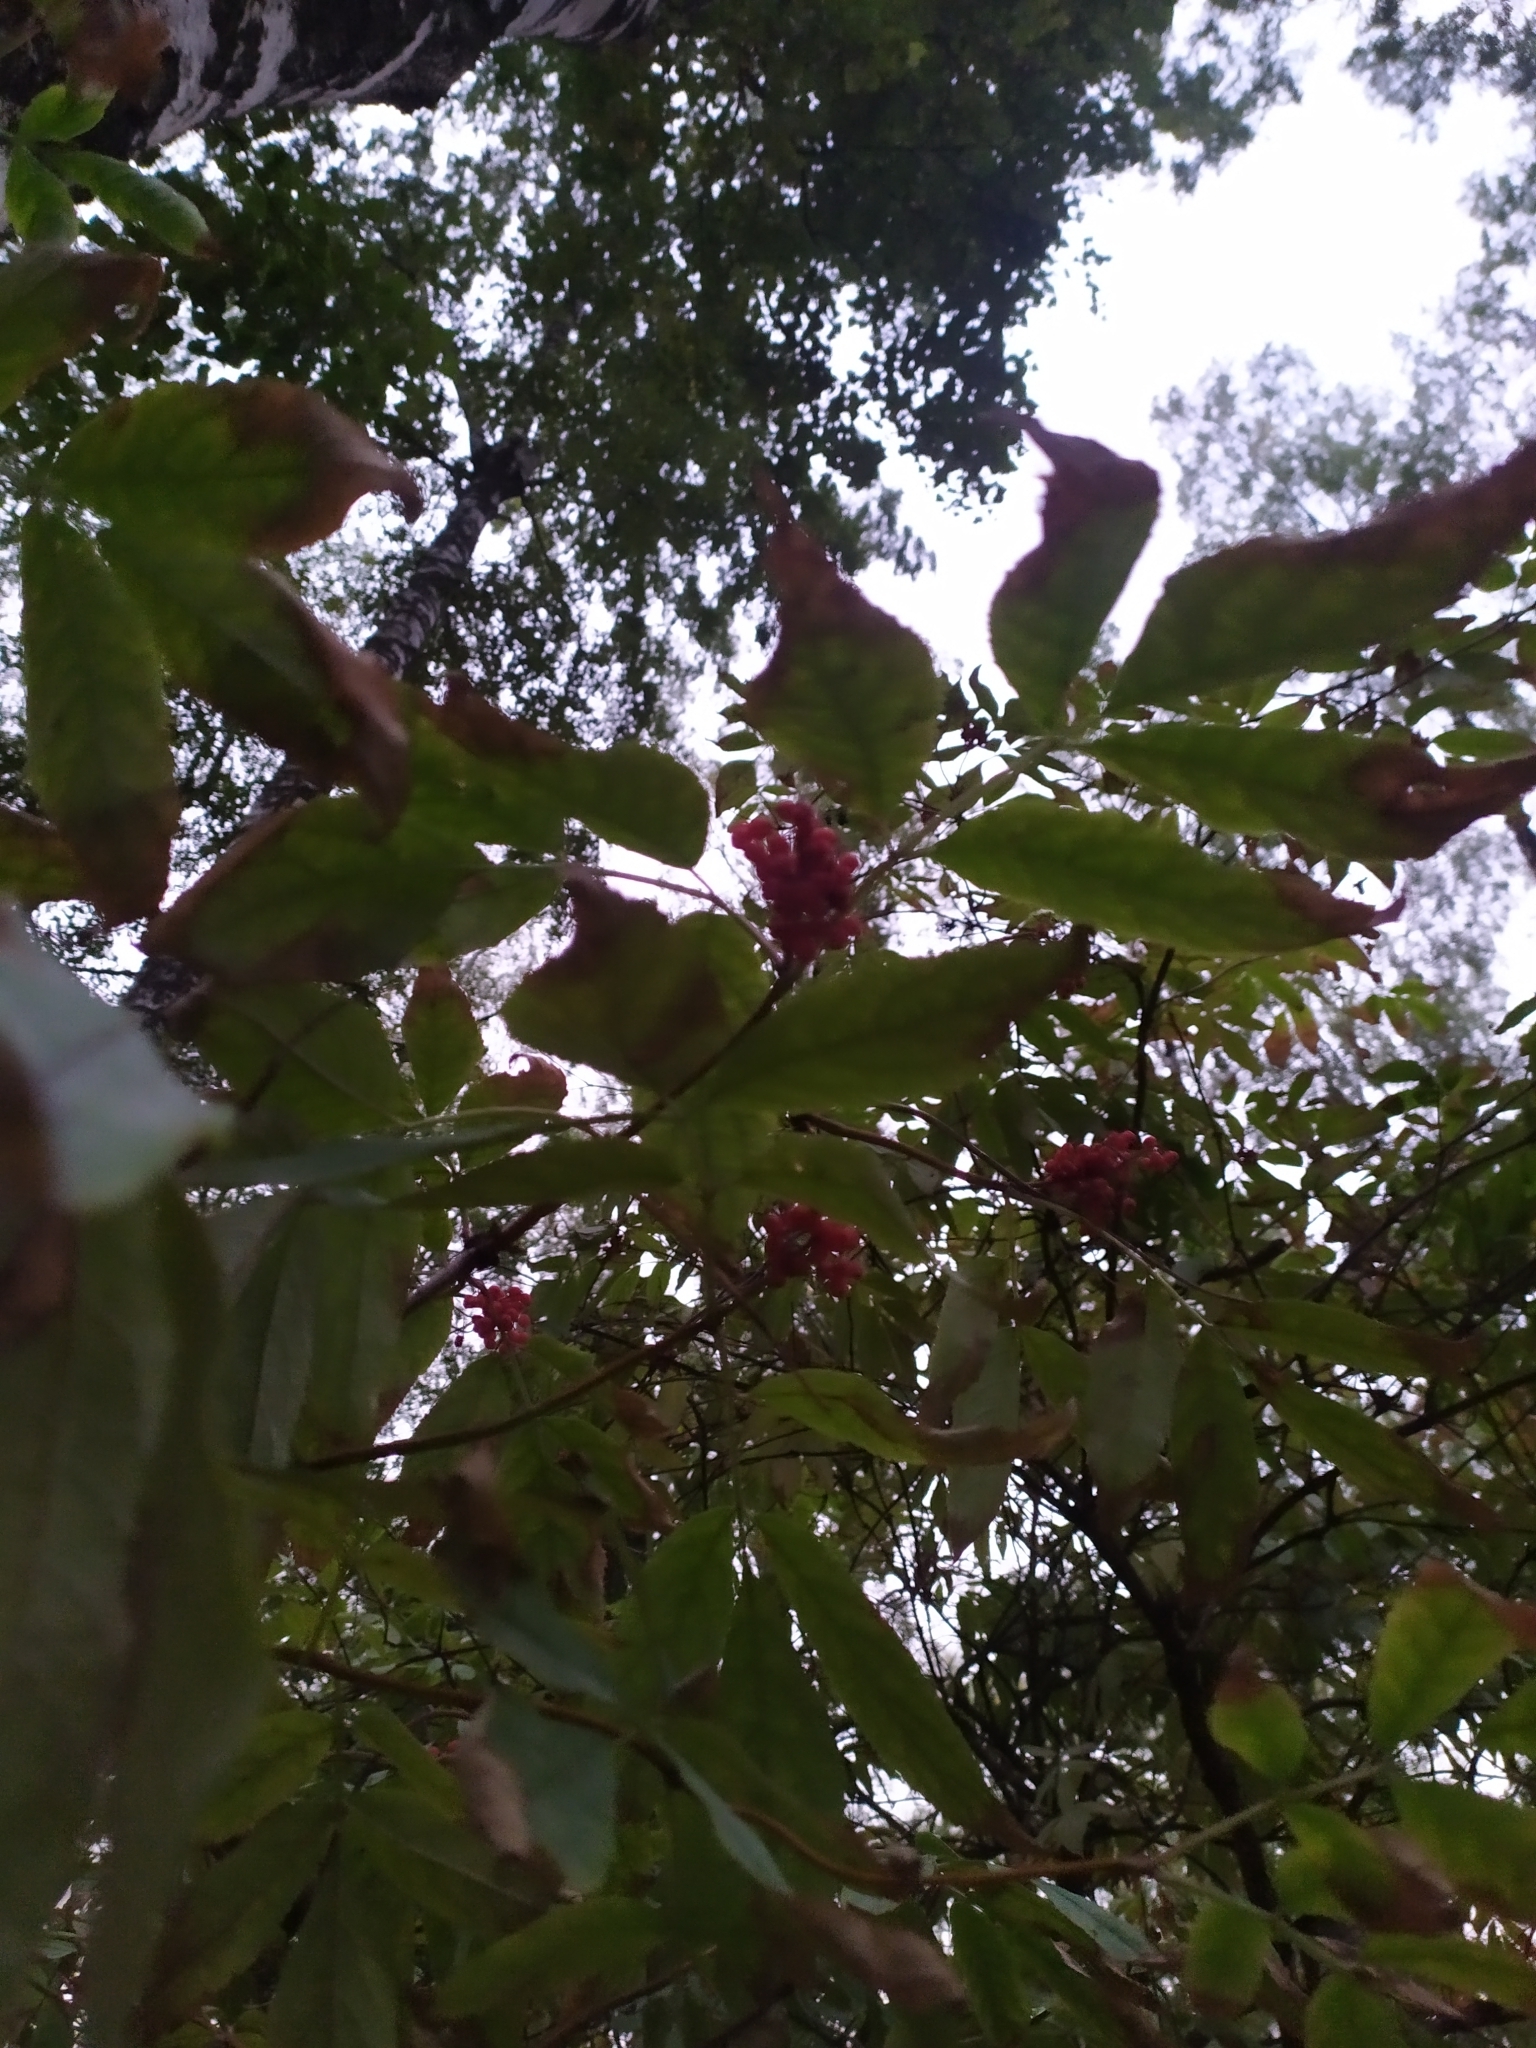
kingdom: Plantae
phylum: Tracheophyta
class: Magnoliopsida
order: Dipsacales
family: Viburnaceae
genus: Sambucus
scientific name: Sambucus racemosa
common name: Red-berried elder
